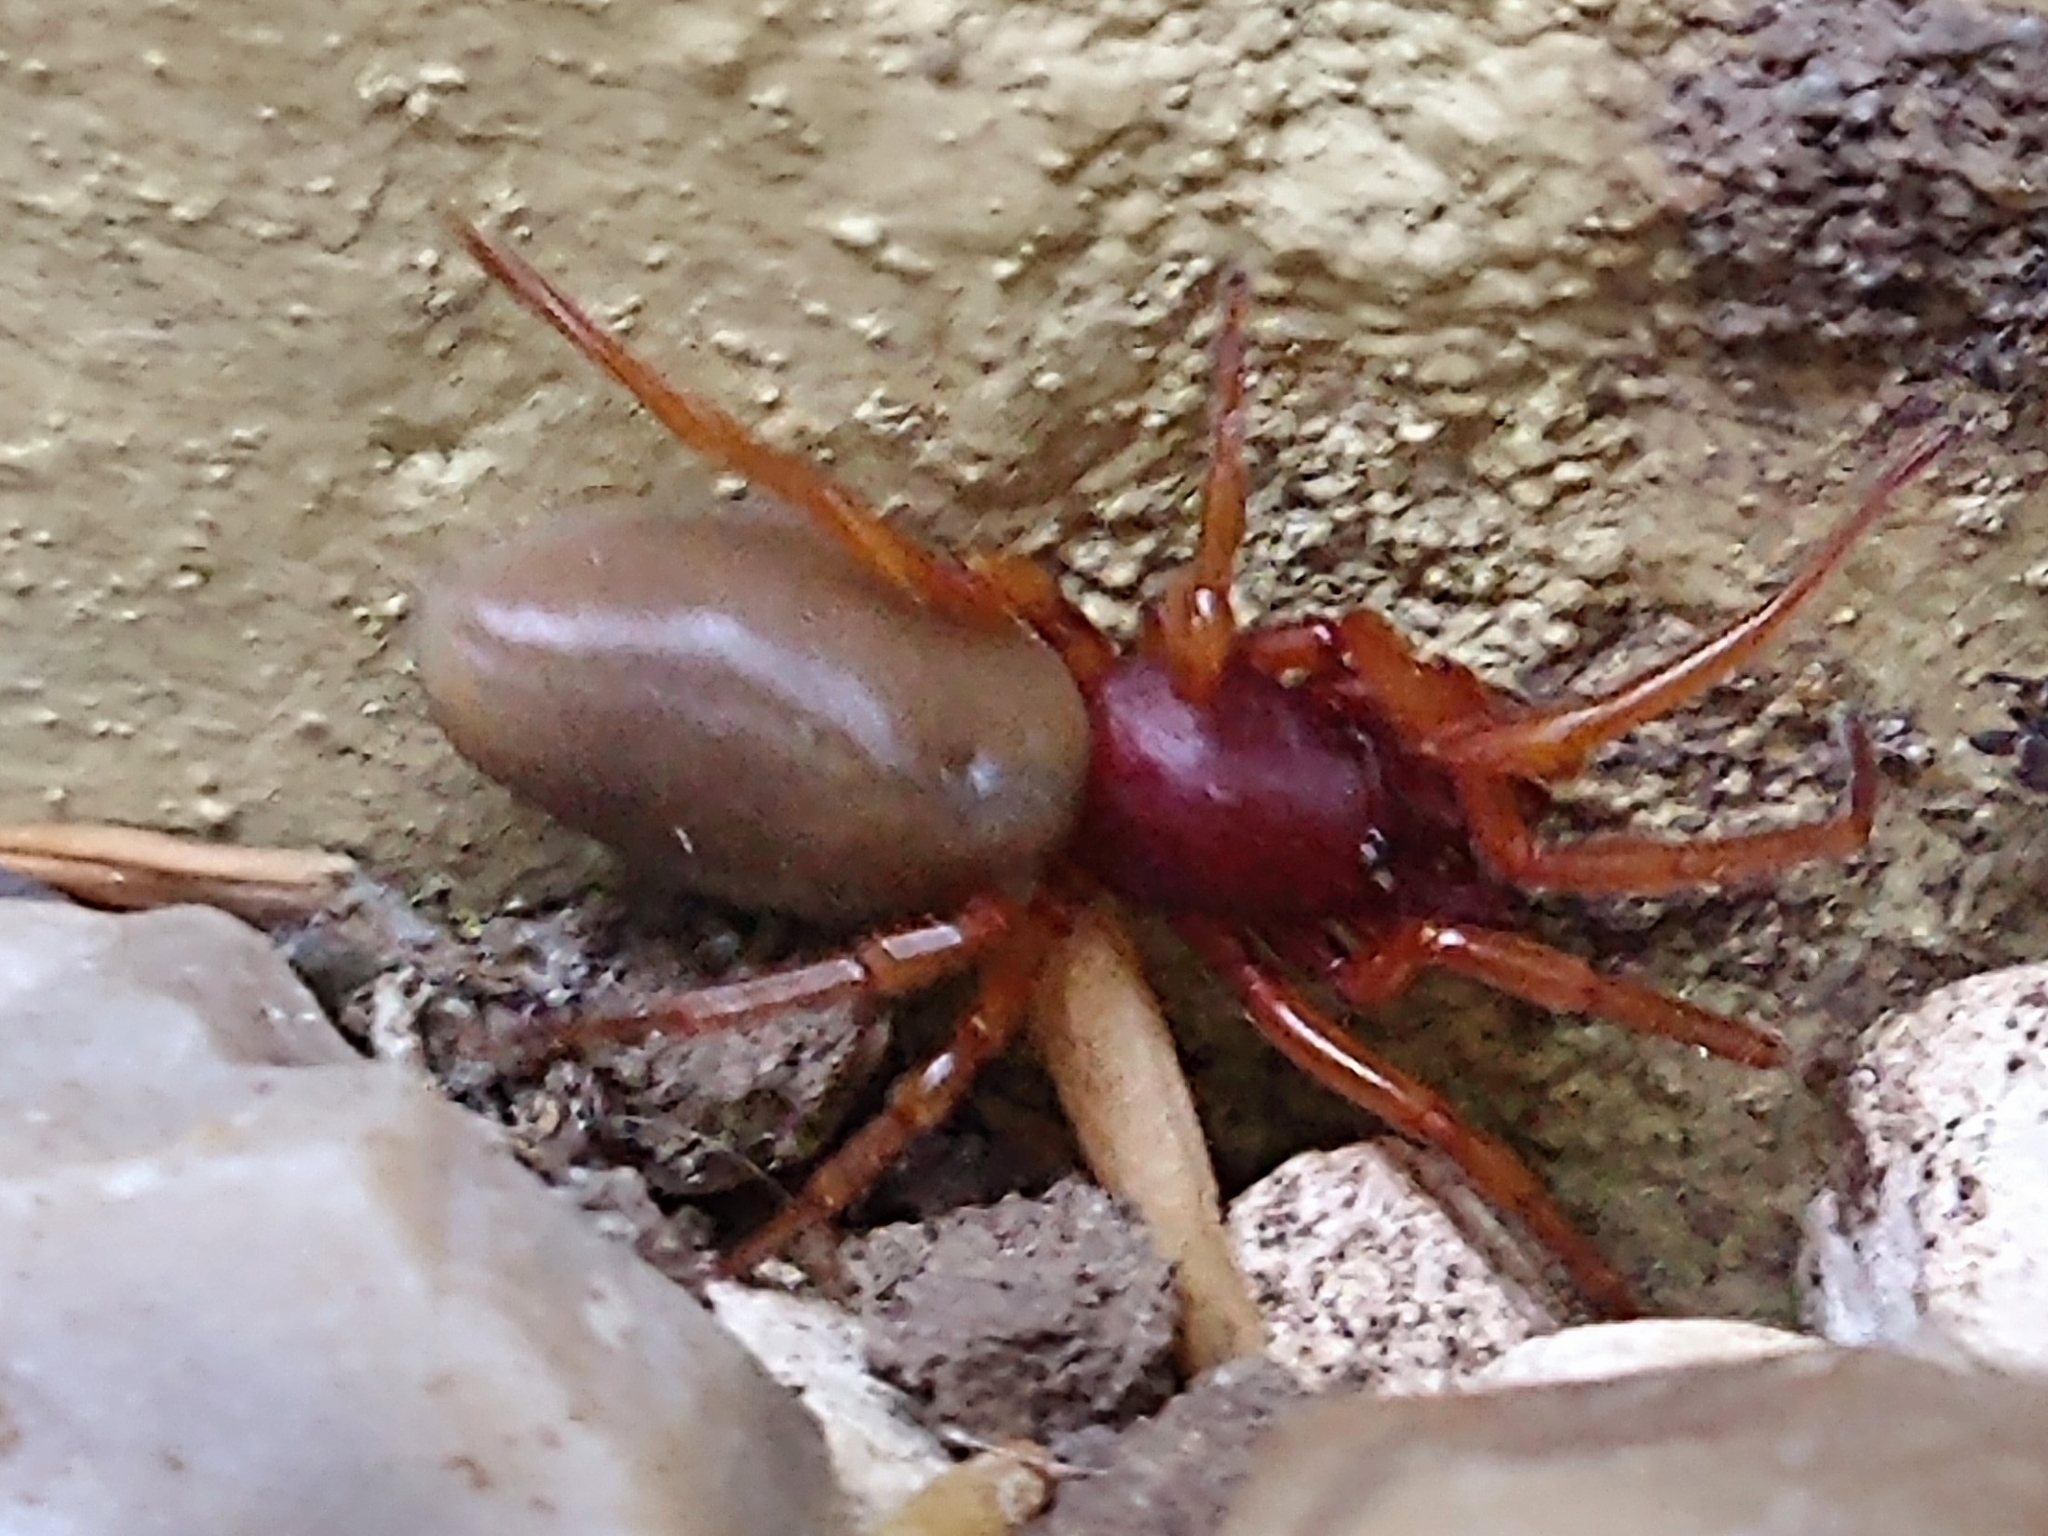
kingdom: Animalia
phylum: Arthropoda
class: Arachnida
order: Araneae
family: Dysderidae
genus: Dysdera
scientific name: Dysdera crocata
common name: Woodlouse spider
